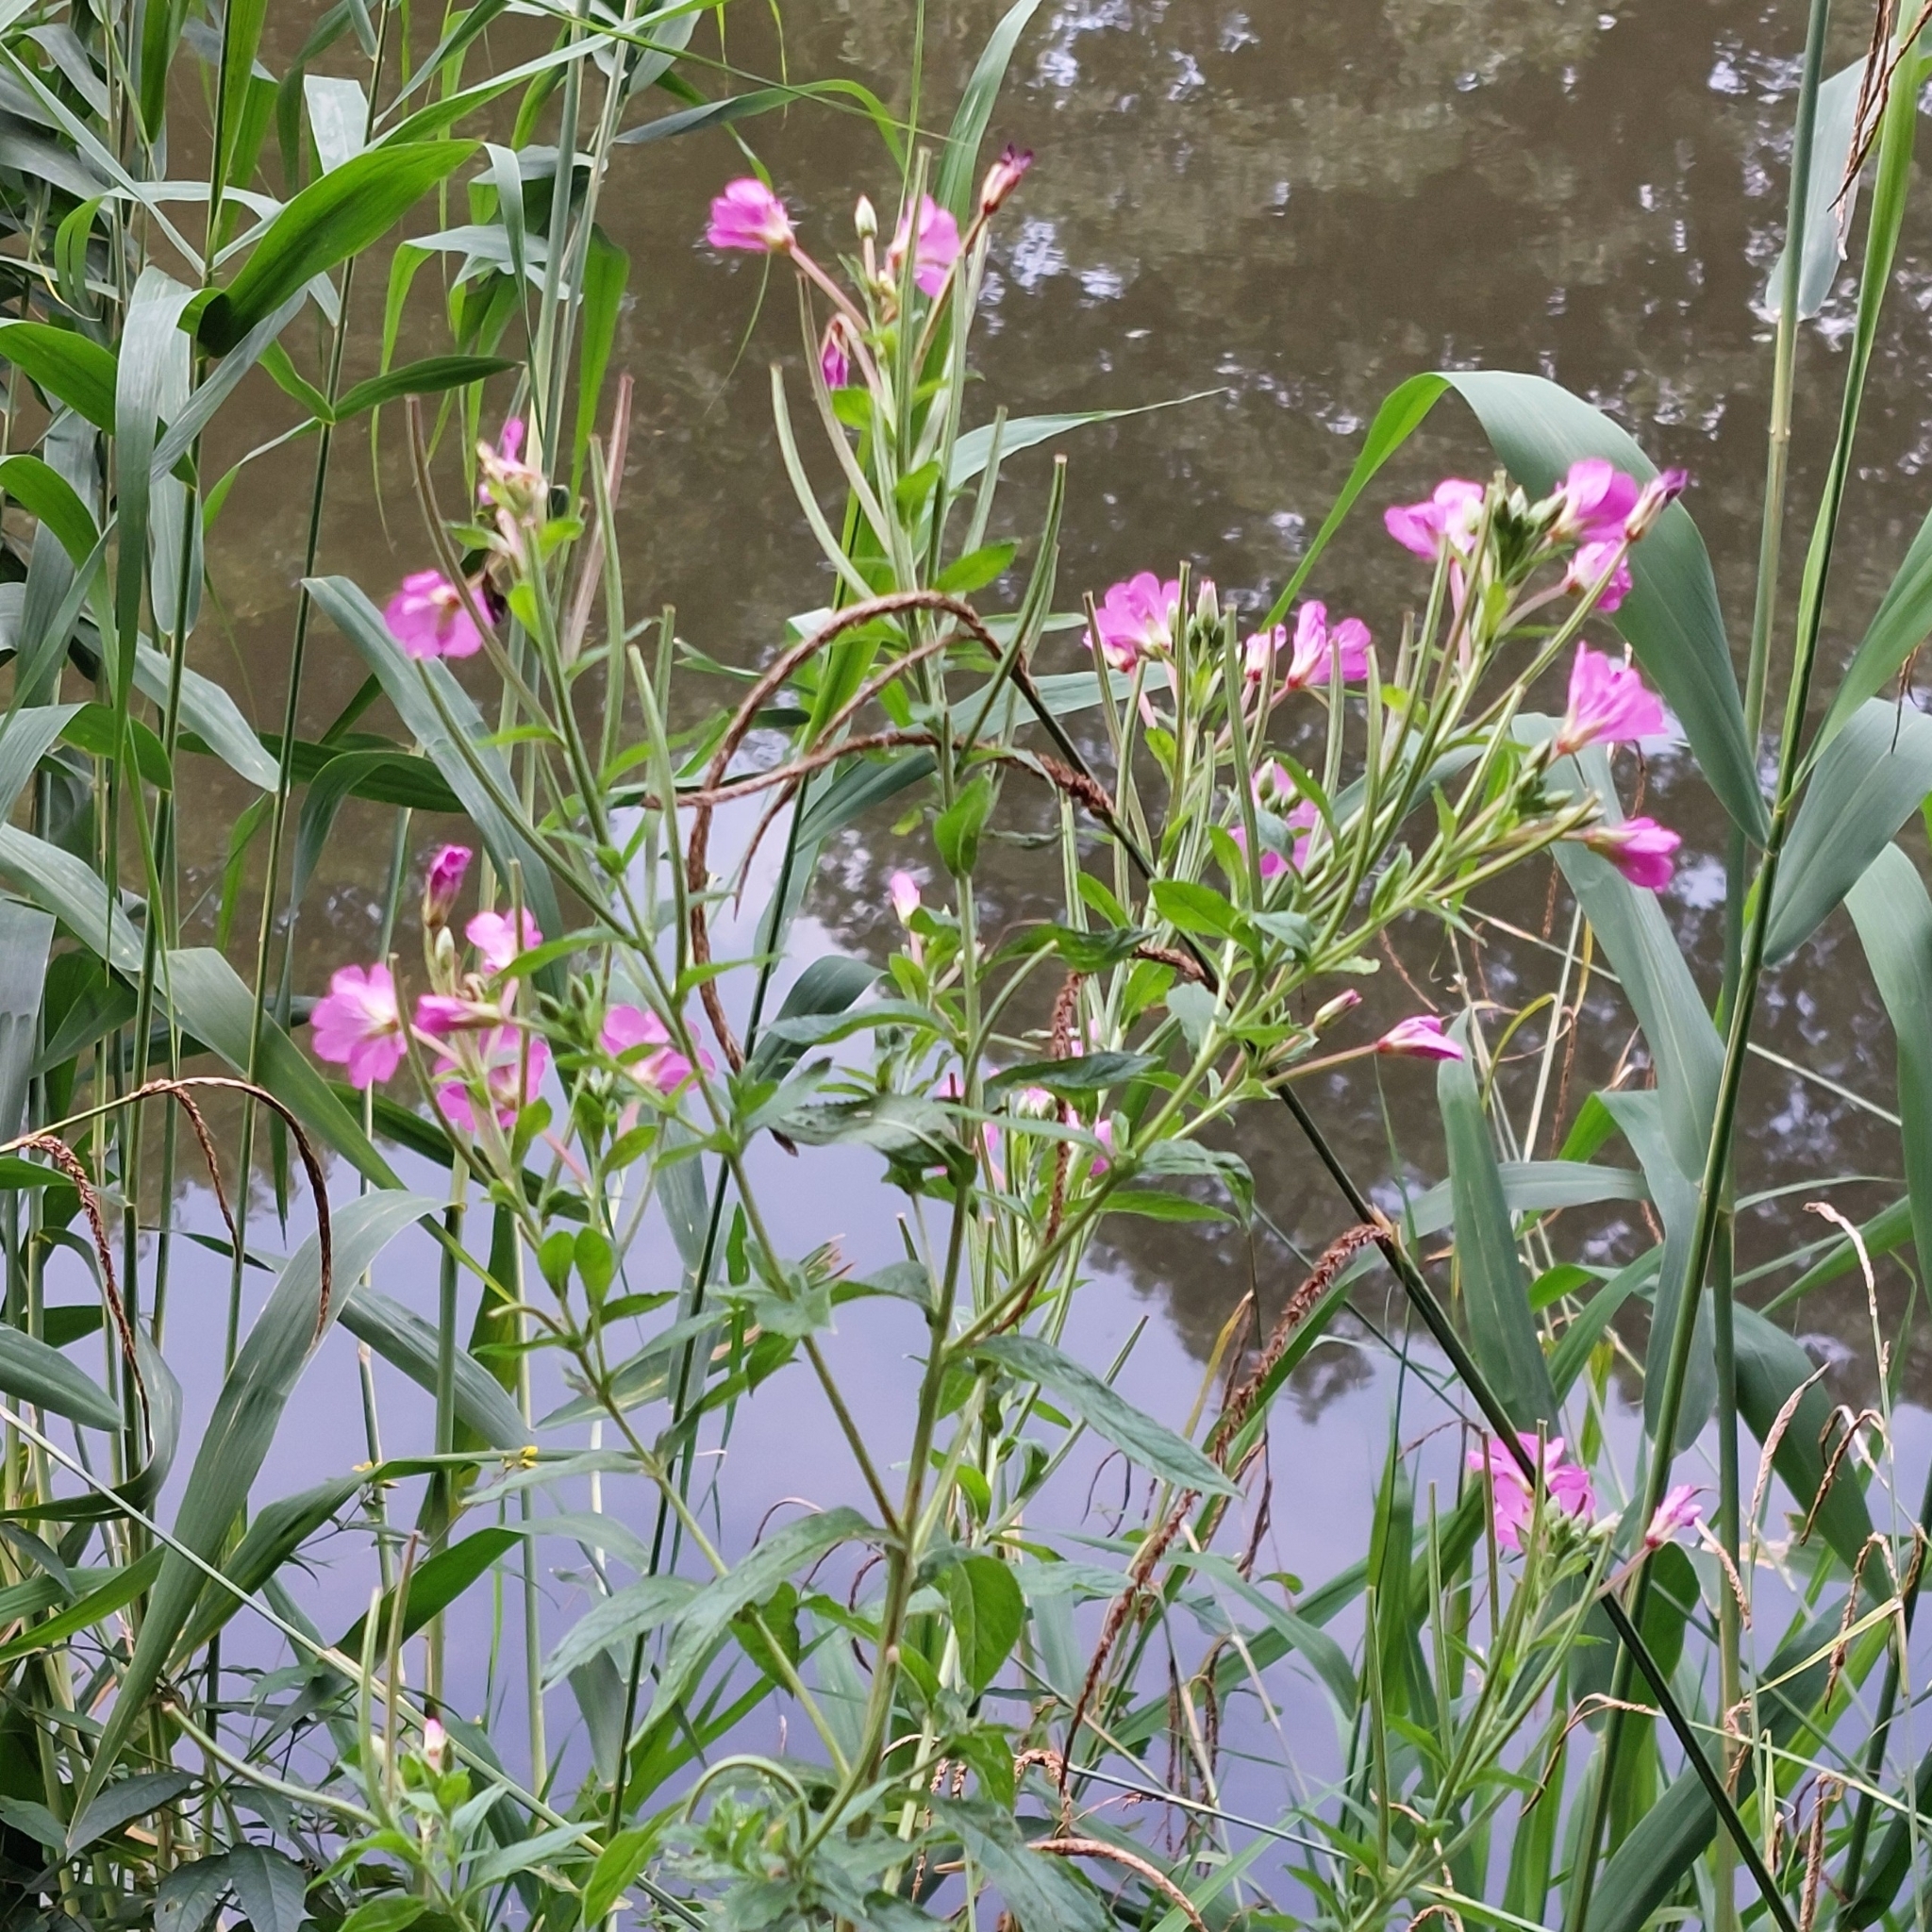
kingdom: Plantae
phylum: Tracheophyta
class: Magnoliopsida
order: Myrtales
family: Onagraceae
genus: Epilobium
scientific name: Epilobium hirsutum
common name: Great willowherb
